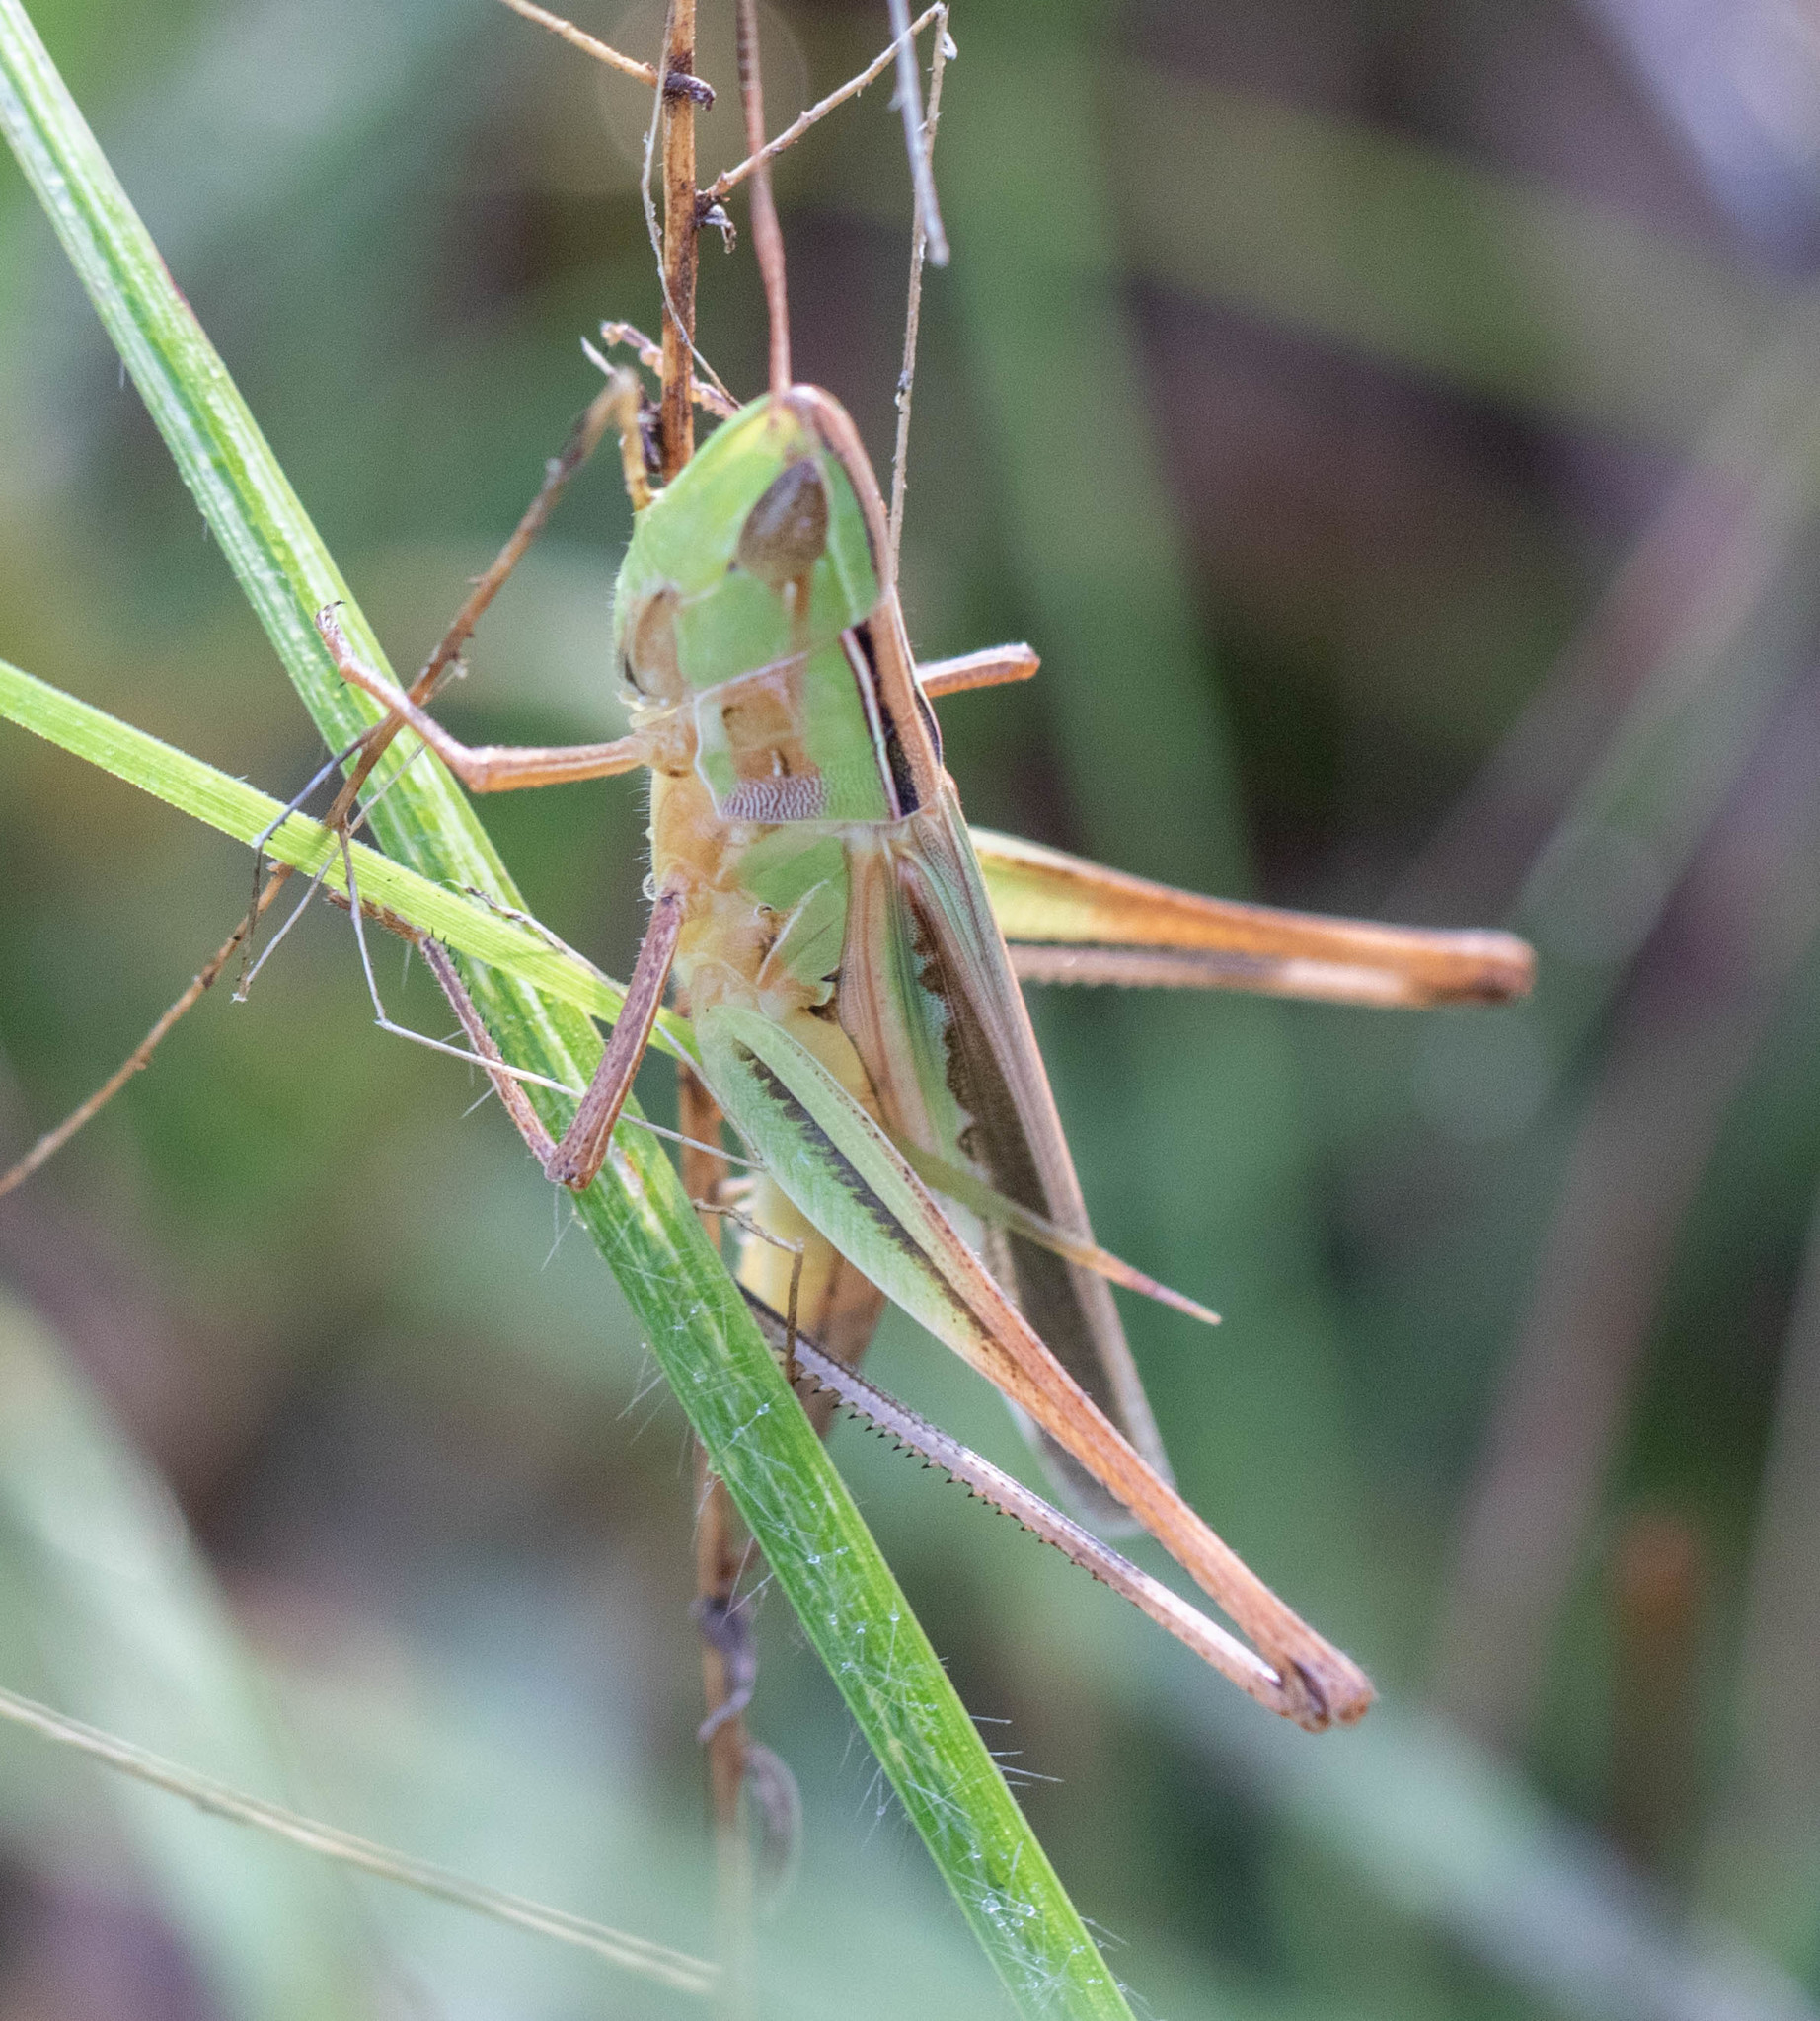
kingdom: Animalia
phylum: Arthropoda
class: Insecta
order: Orthoptera
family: Acrididae
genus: Syrbula
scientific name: Syrbula admirabilis
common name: Handsome grasshopper
